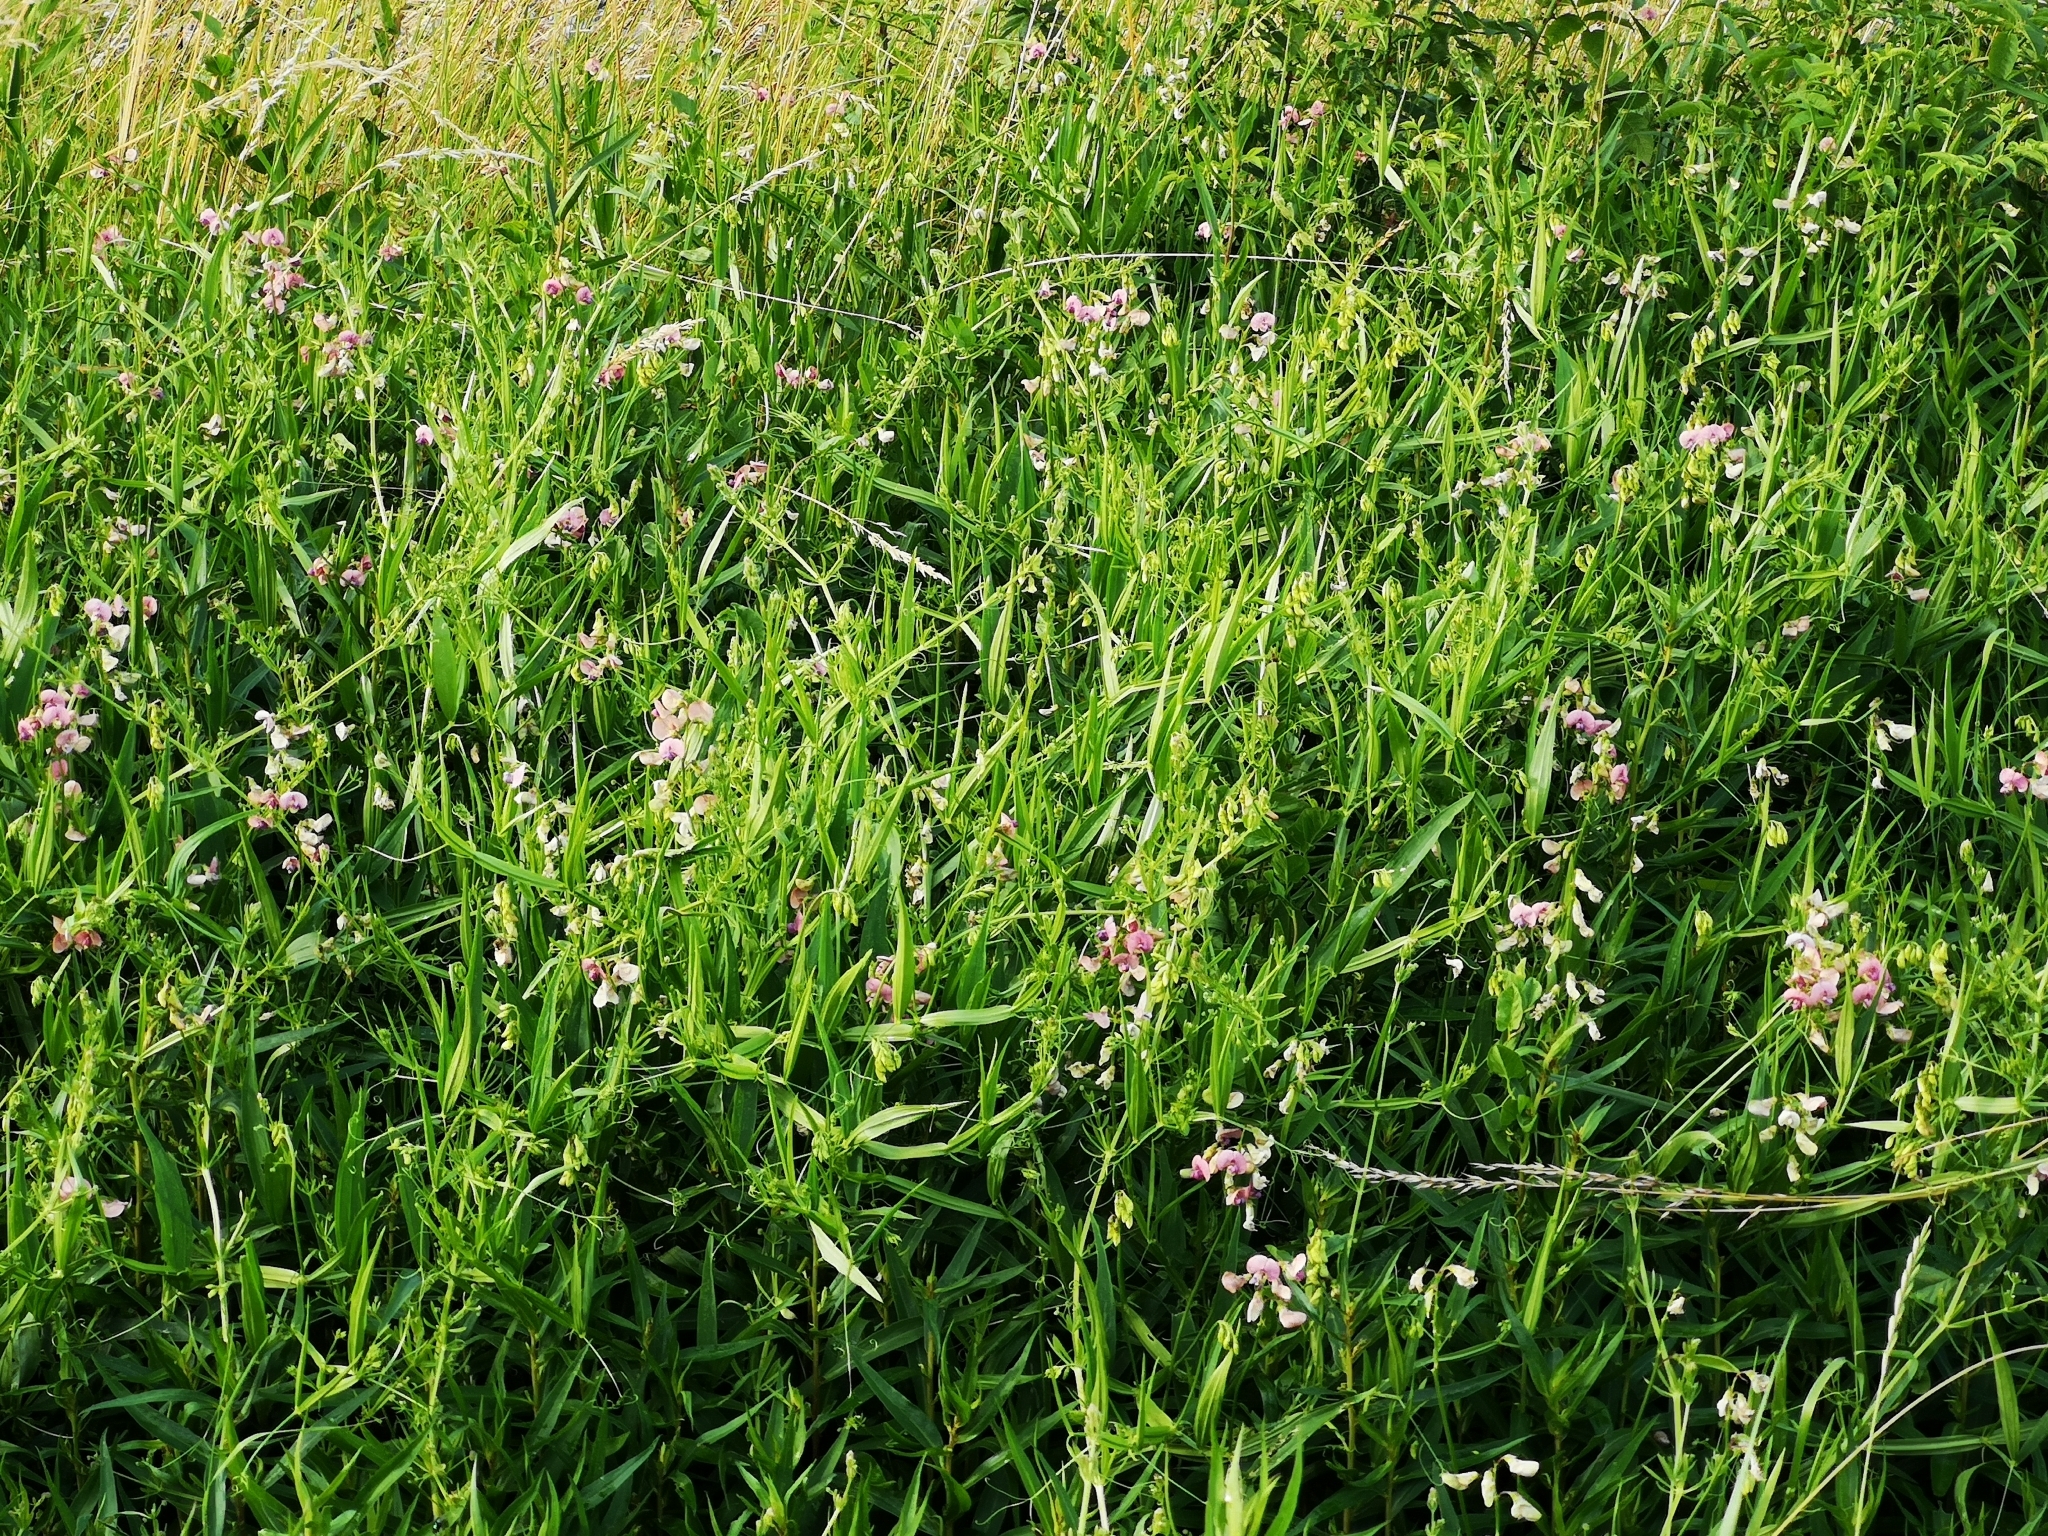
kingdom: Plantae
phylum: Tracheophyta
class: Magnoliopsida
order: Fabales
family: Fabaceae
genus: Lathyrus
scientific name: Lathyrus sylvestris
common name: Flat pea
